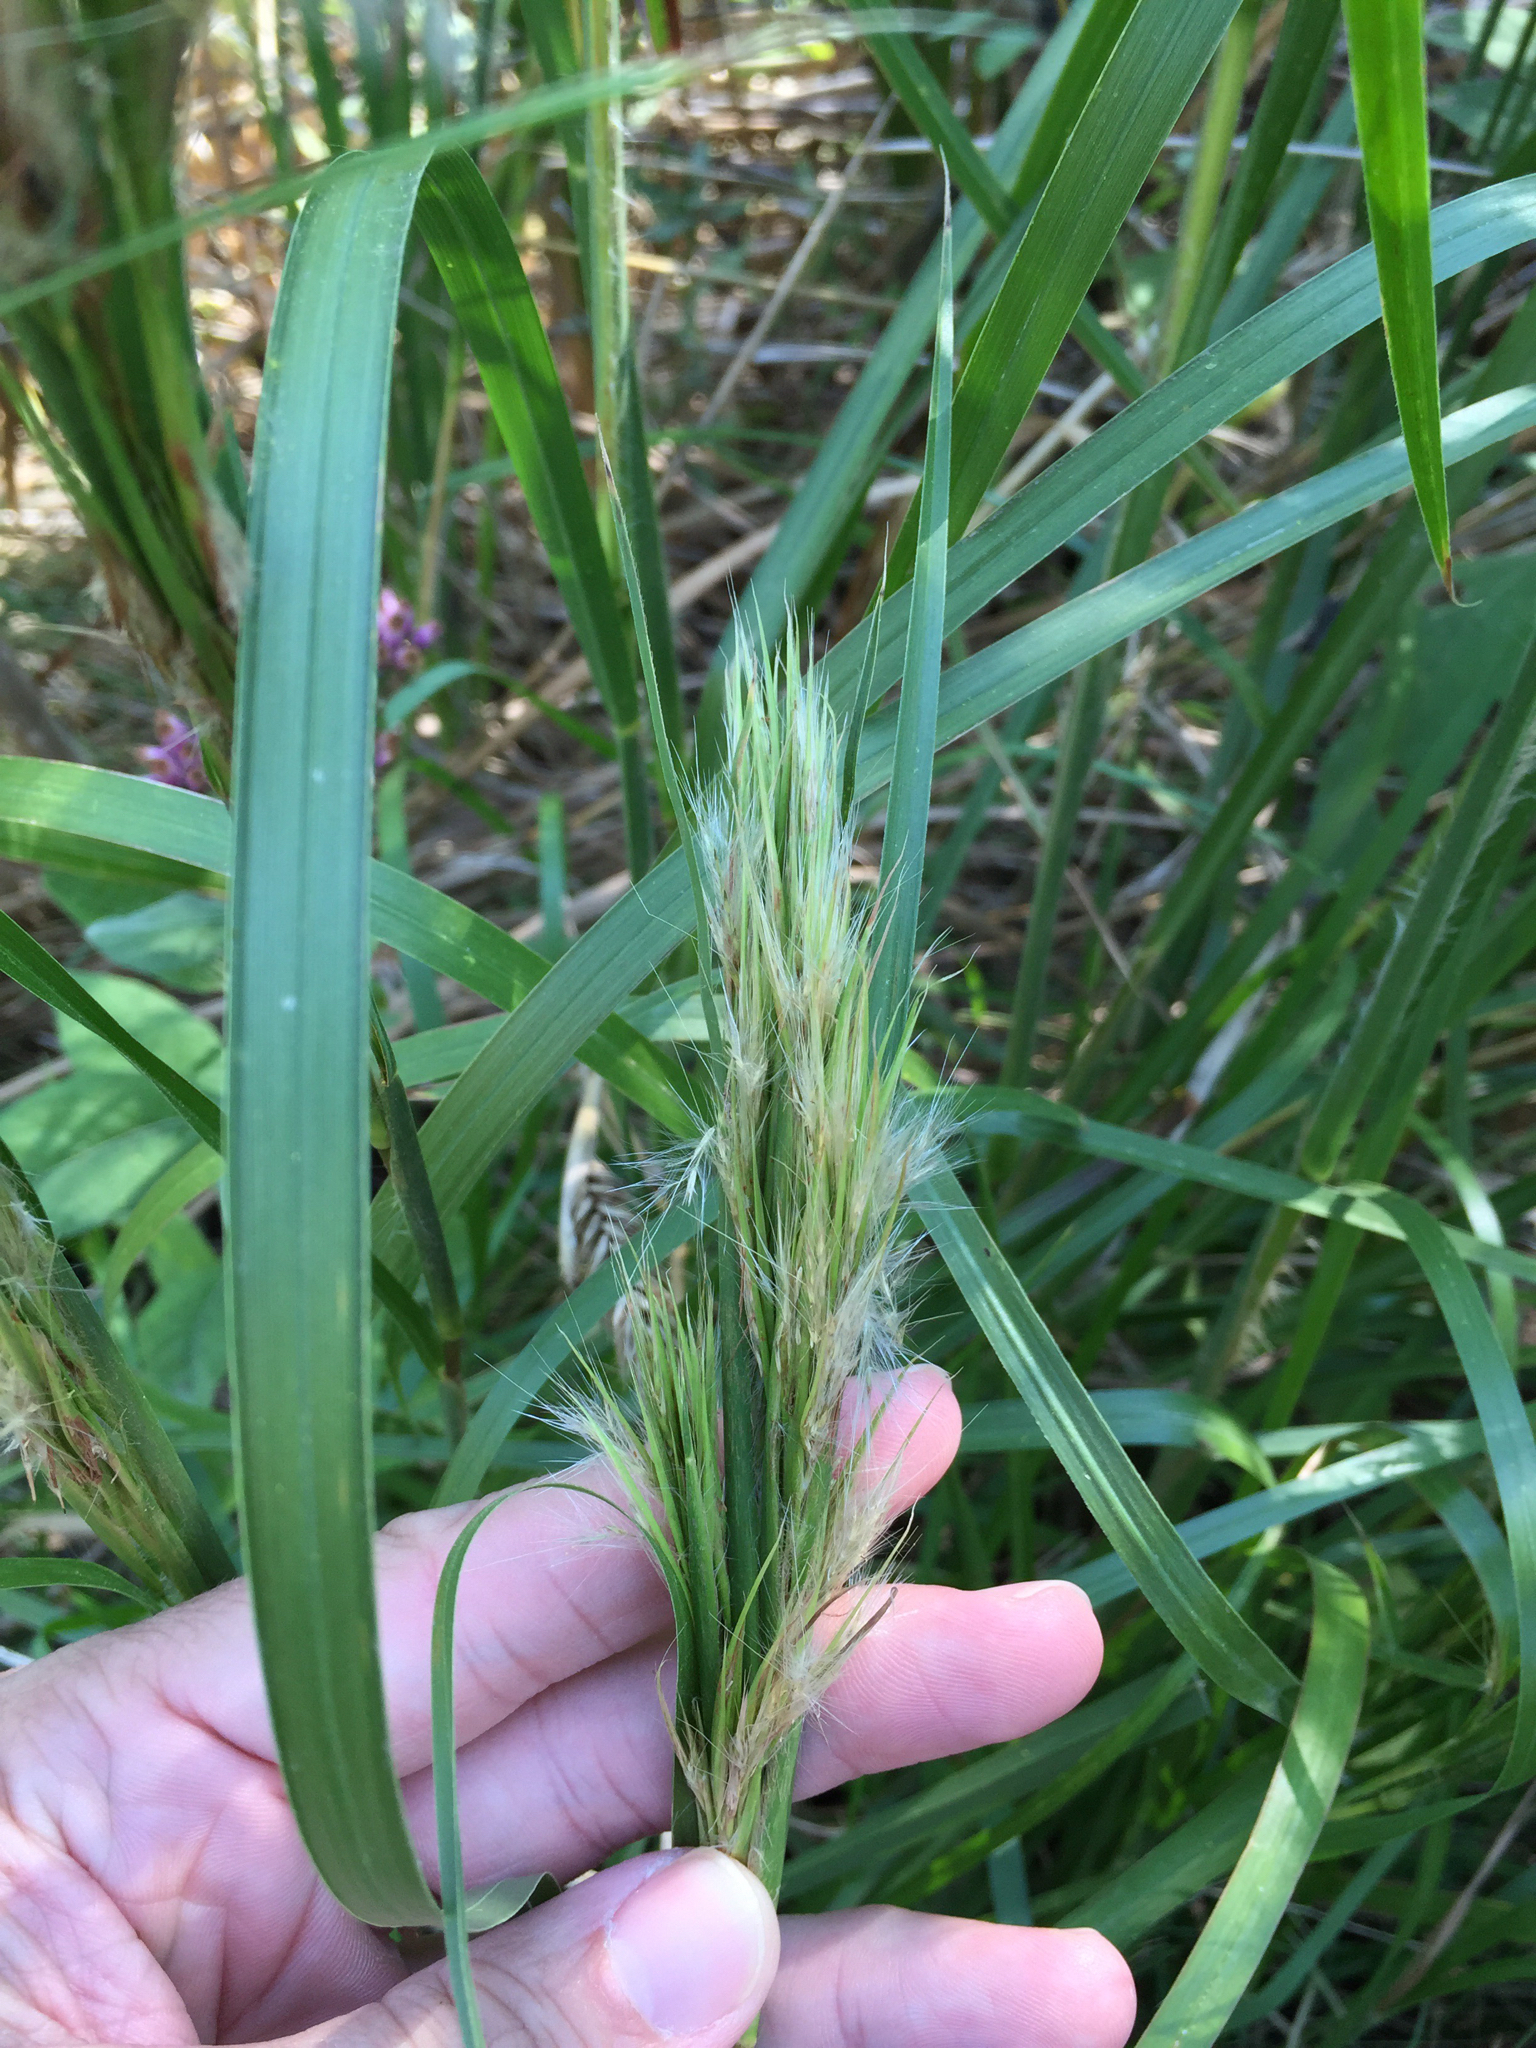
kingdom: Plantae
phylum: Tracheophyta
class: Liliopsida
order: Poales
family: Poaceae
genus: Andropogon
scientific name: Andropogon tenuispatheus
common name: Bushy bluestem
